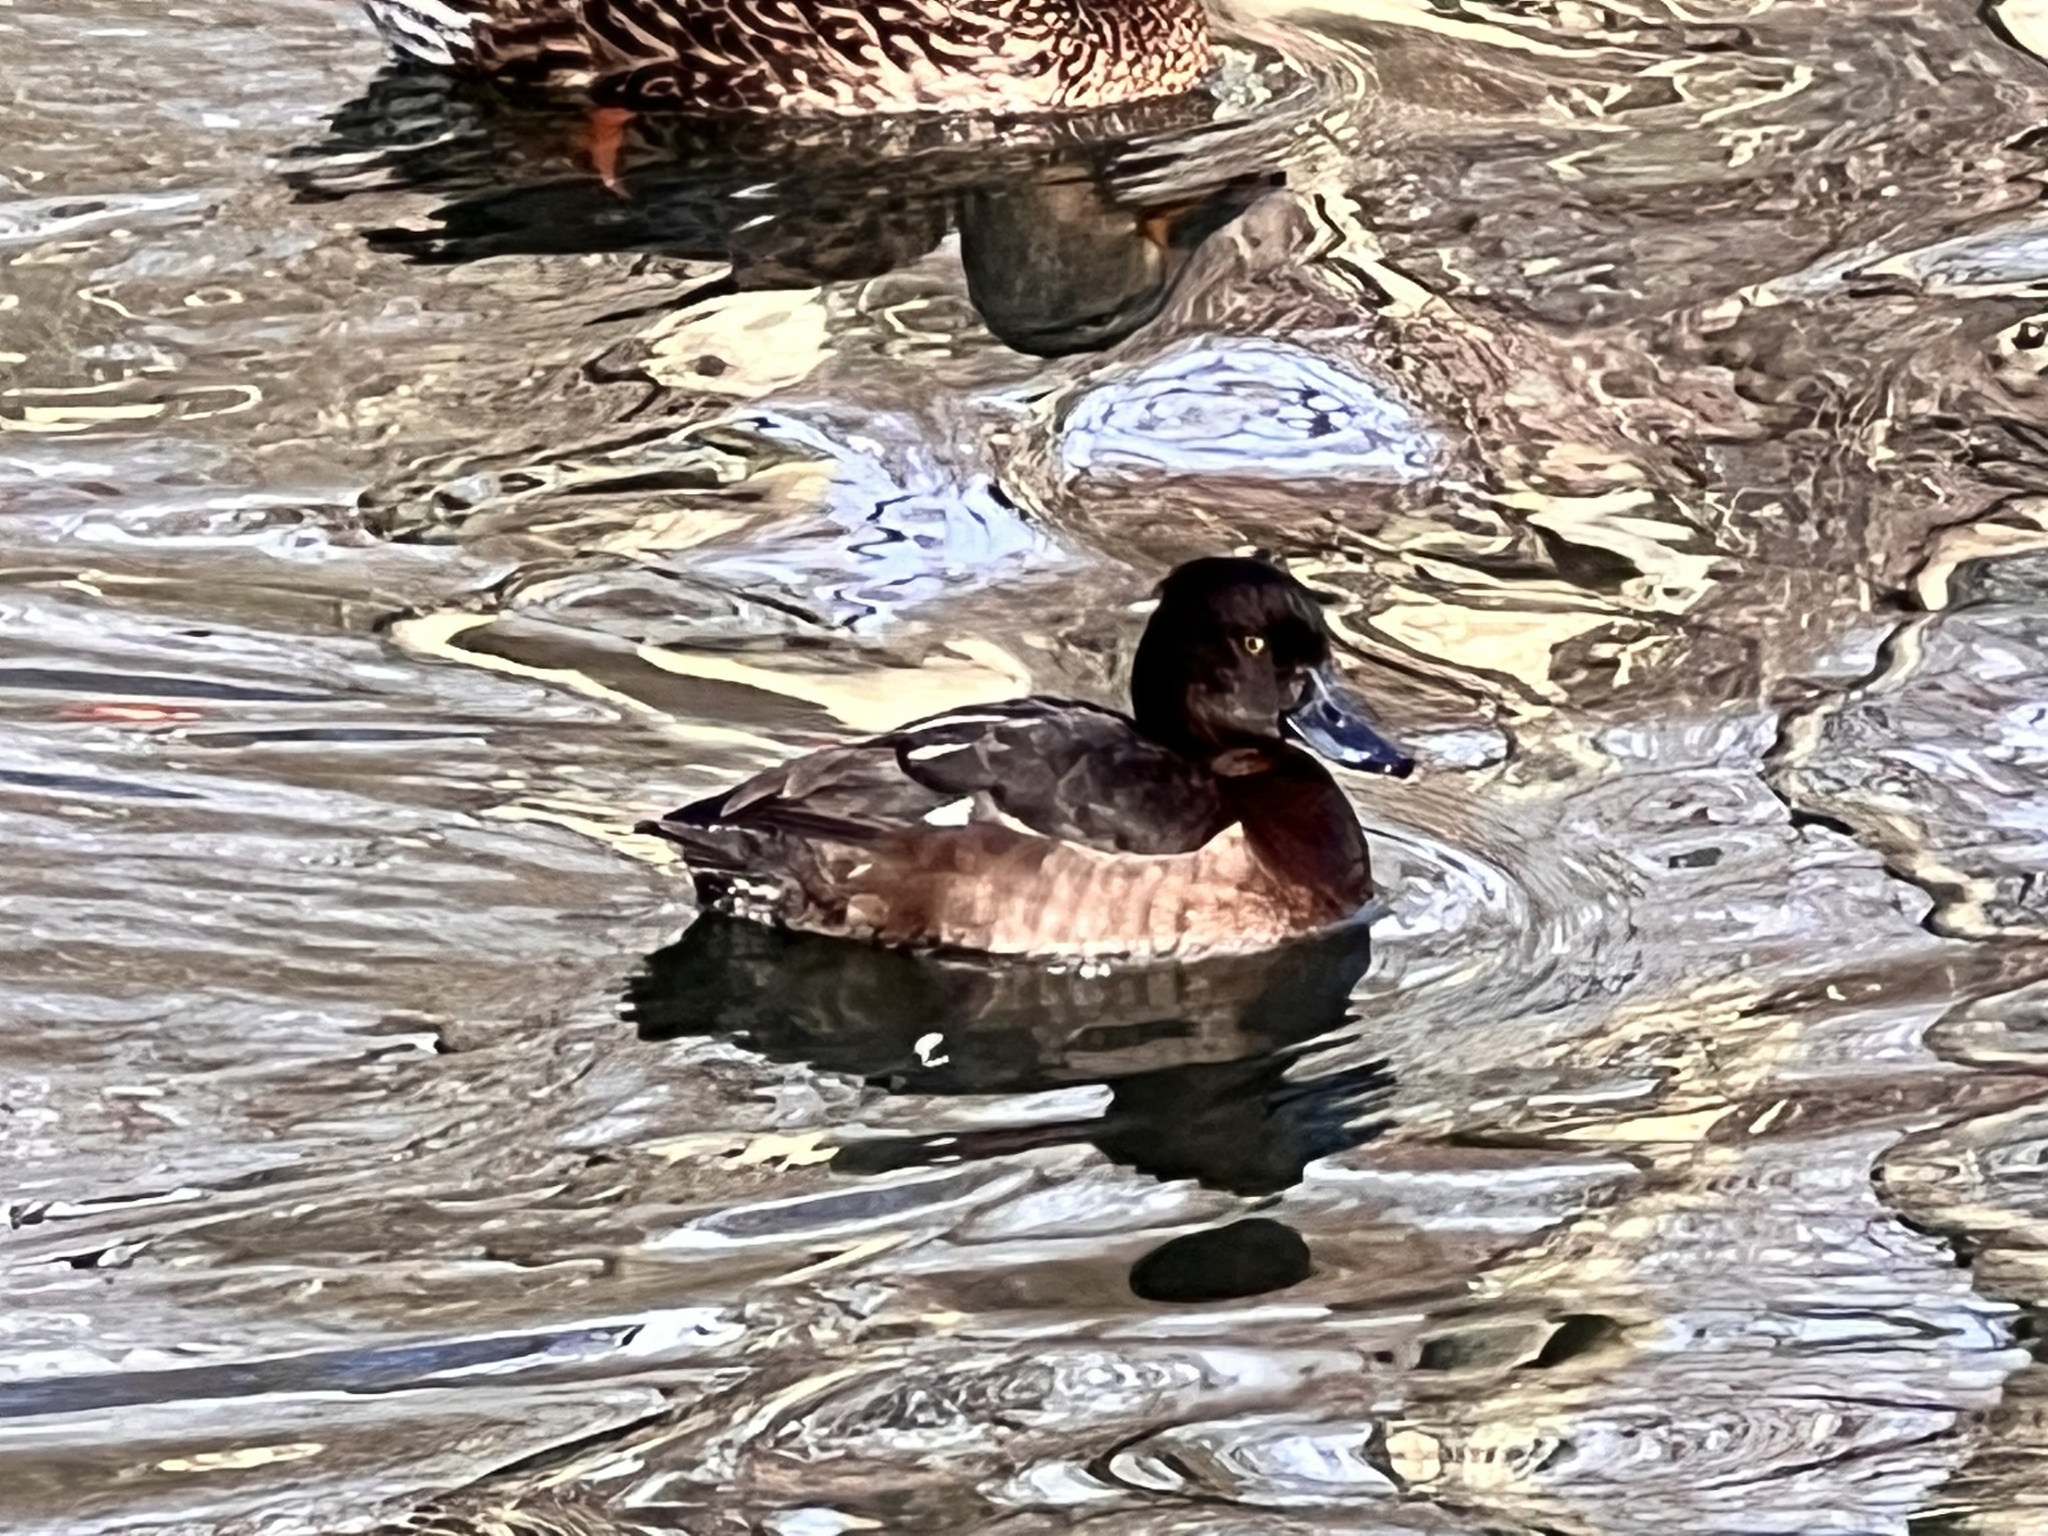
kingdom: Animalia
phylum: Chordata
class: Aves
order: Anseriformes
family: Anatidae
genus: Aythya
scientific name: Aythya fuligula
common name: Tufted duck
